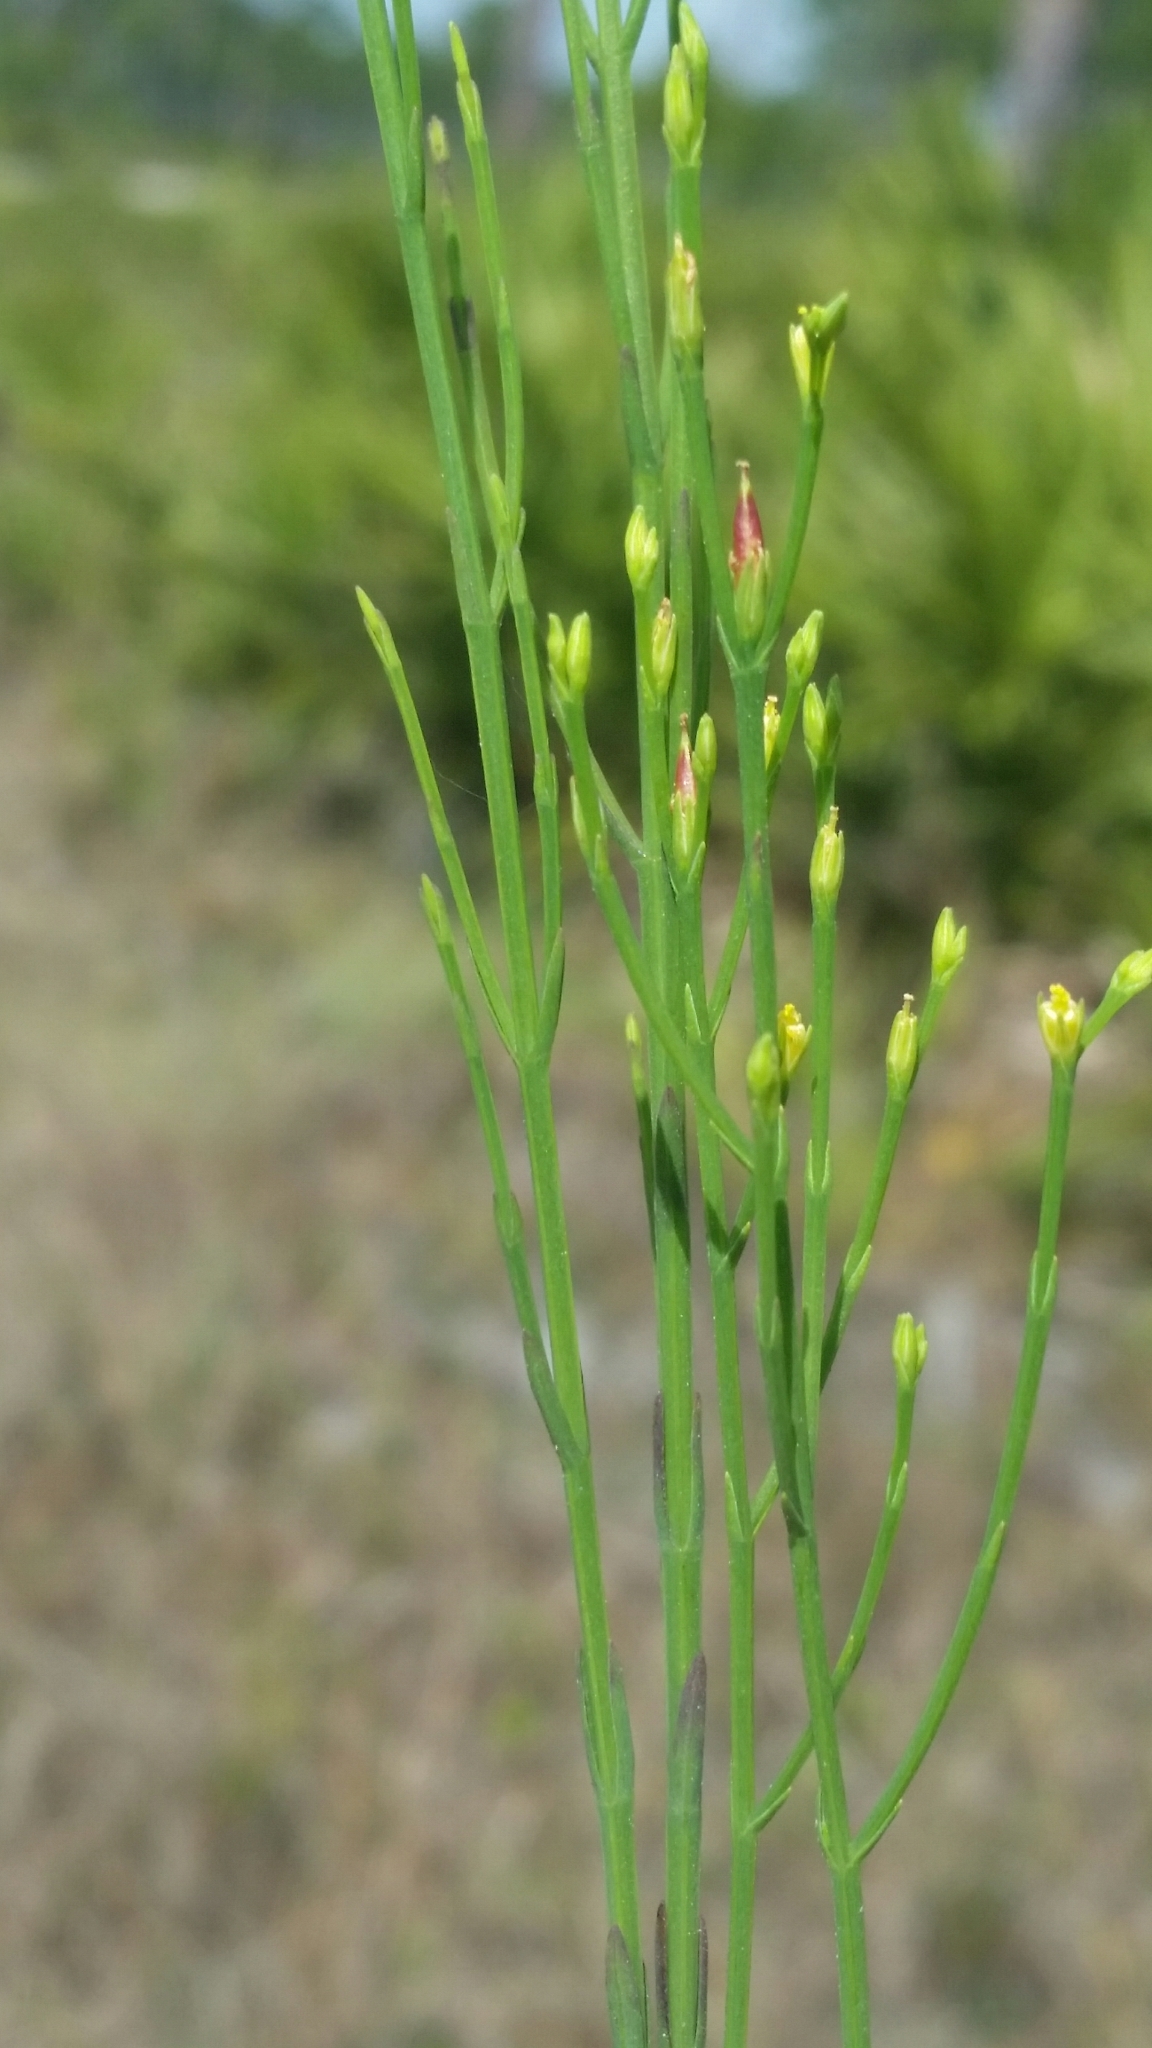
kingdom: Plantae
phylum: Tracheophyta
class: Magnoliopsida
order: Malpighiales
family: Hypericaceae
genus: Hypericum
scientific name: Hypericum gentianoides
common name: Gentian-leaved st. john's-wort
